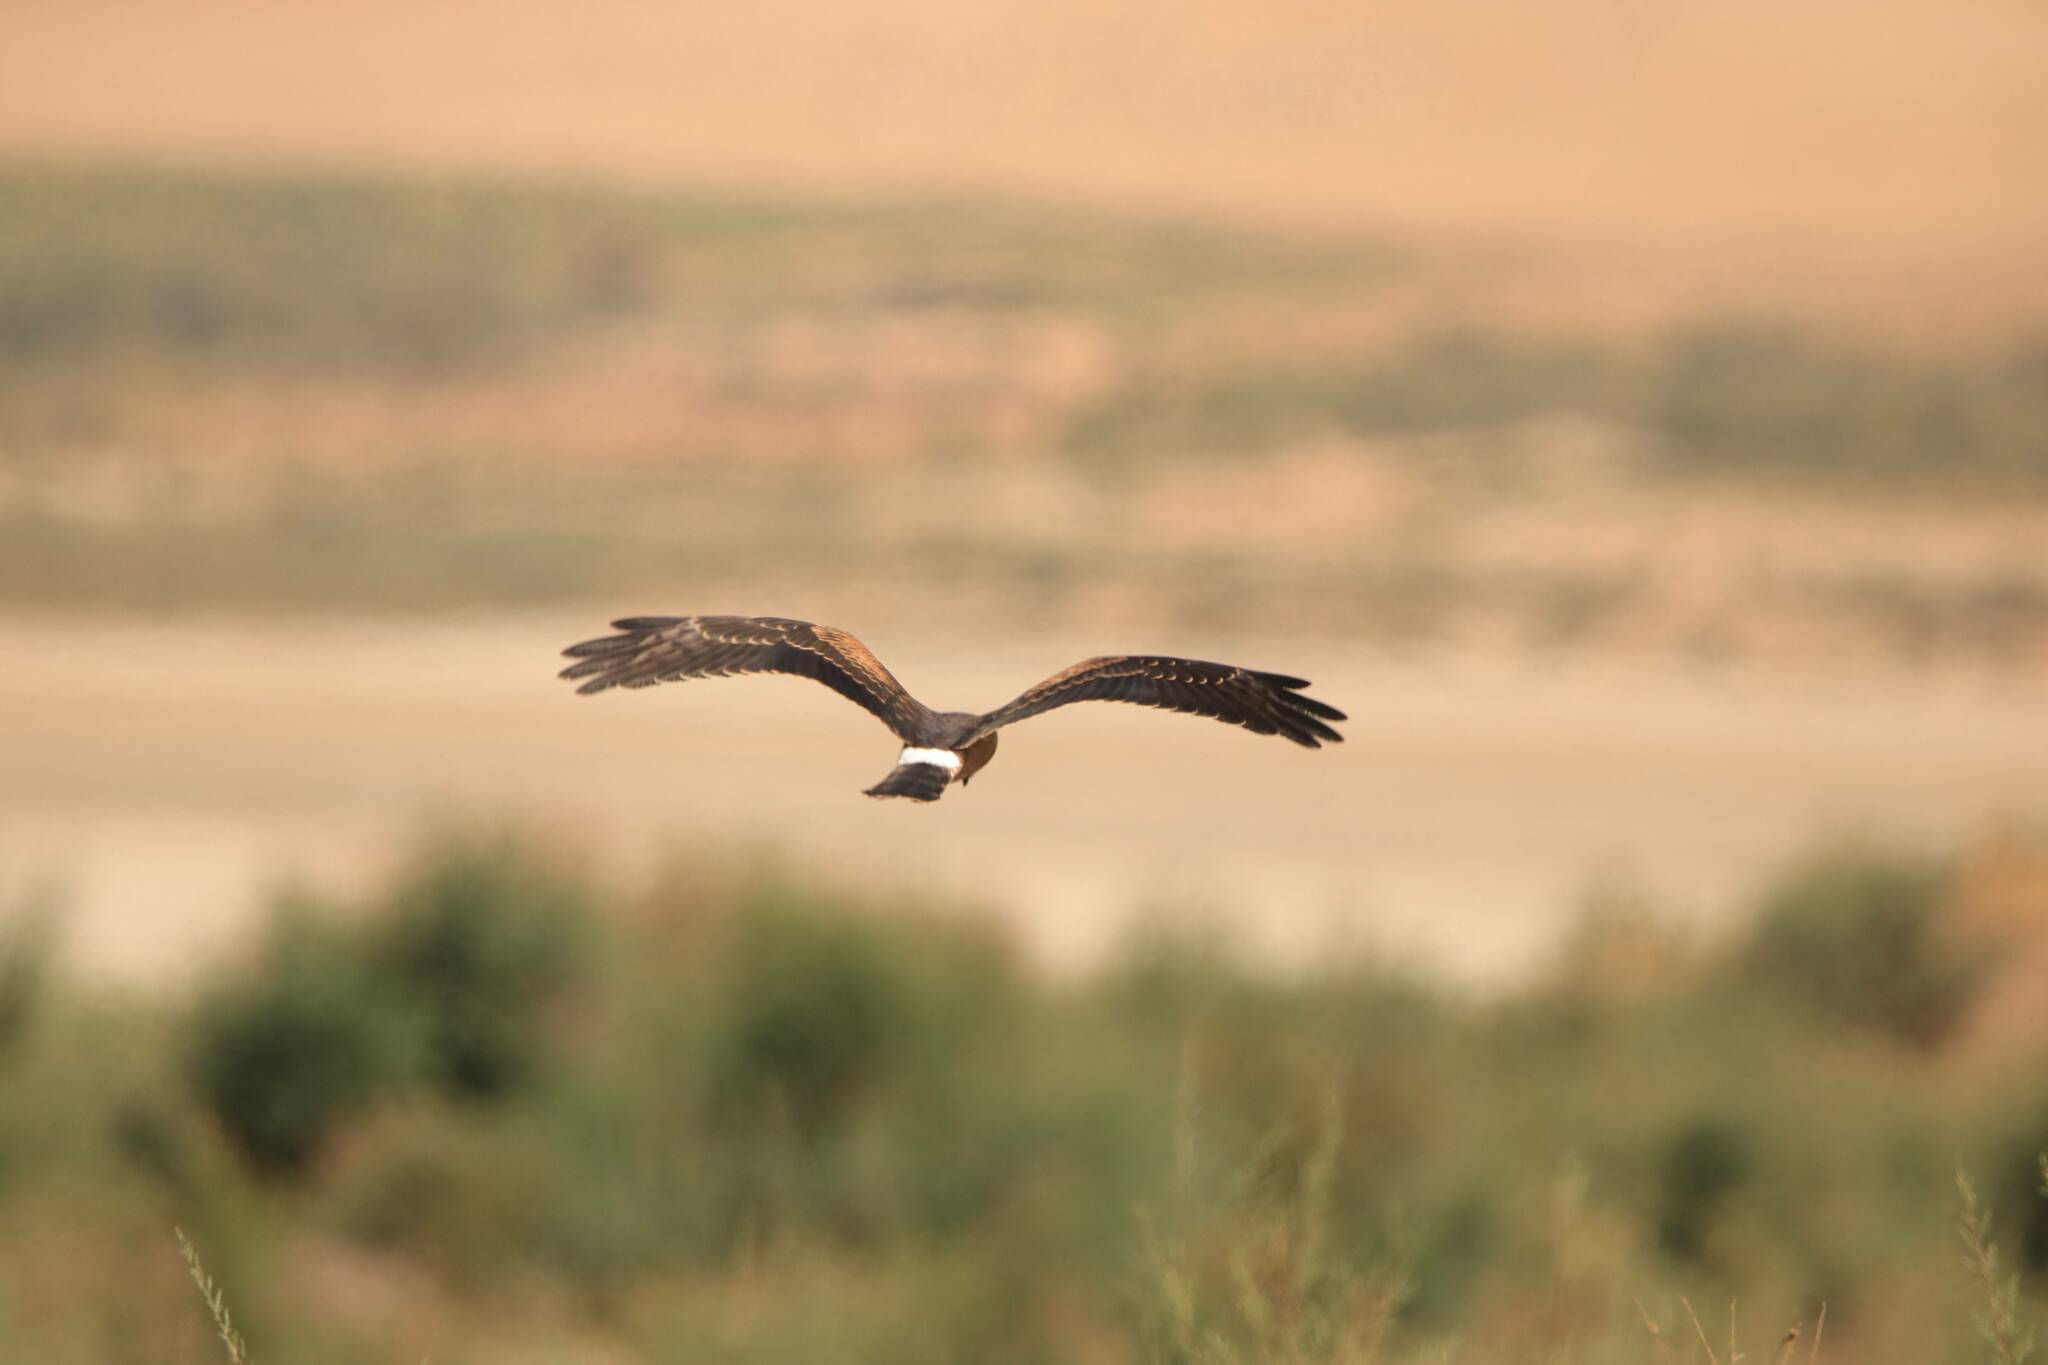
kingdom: Animalia
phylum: Chordata
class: Aves
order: Accipitriformes
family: Accipitridae
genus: Circus
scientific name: Circus pygargus
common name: Montagu's harrier
